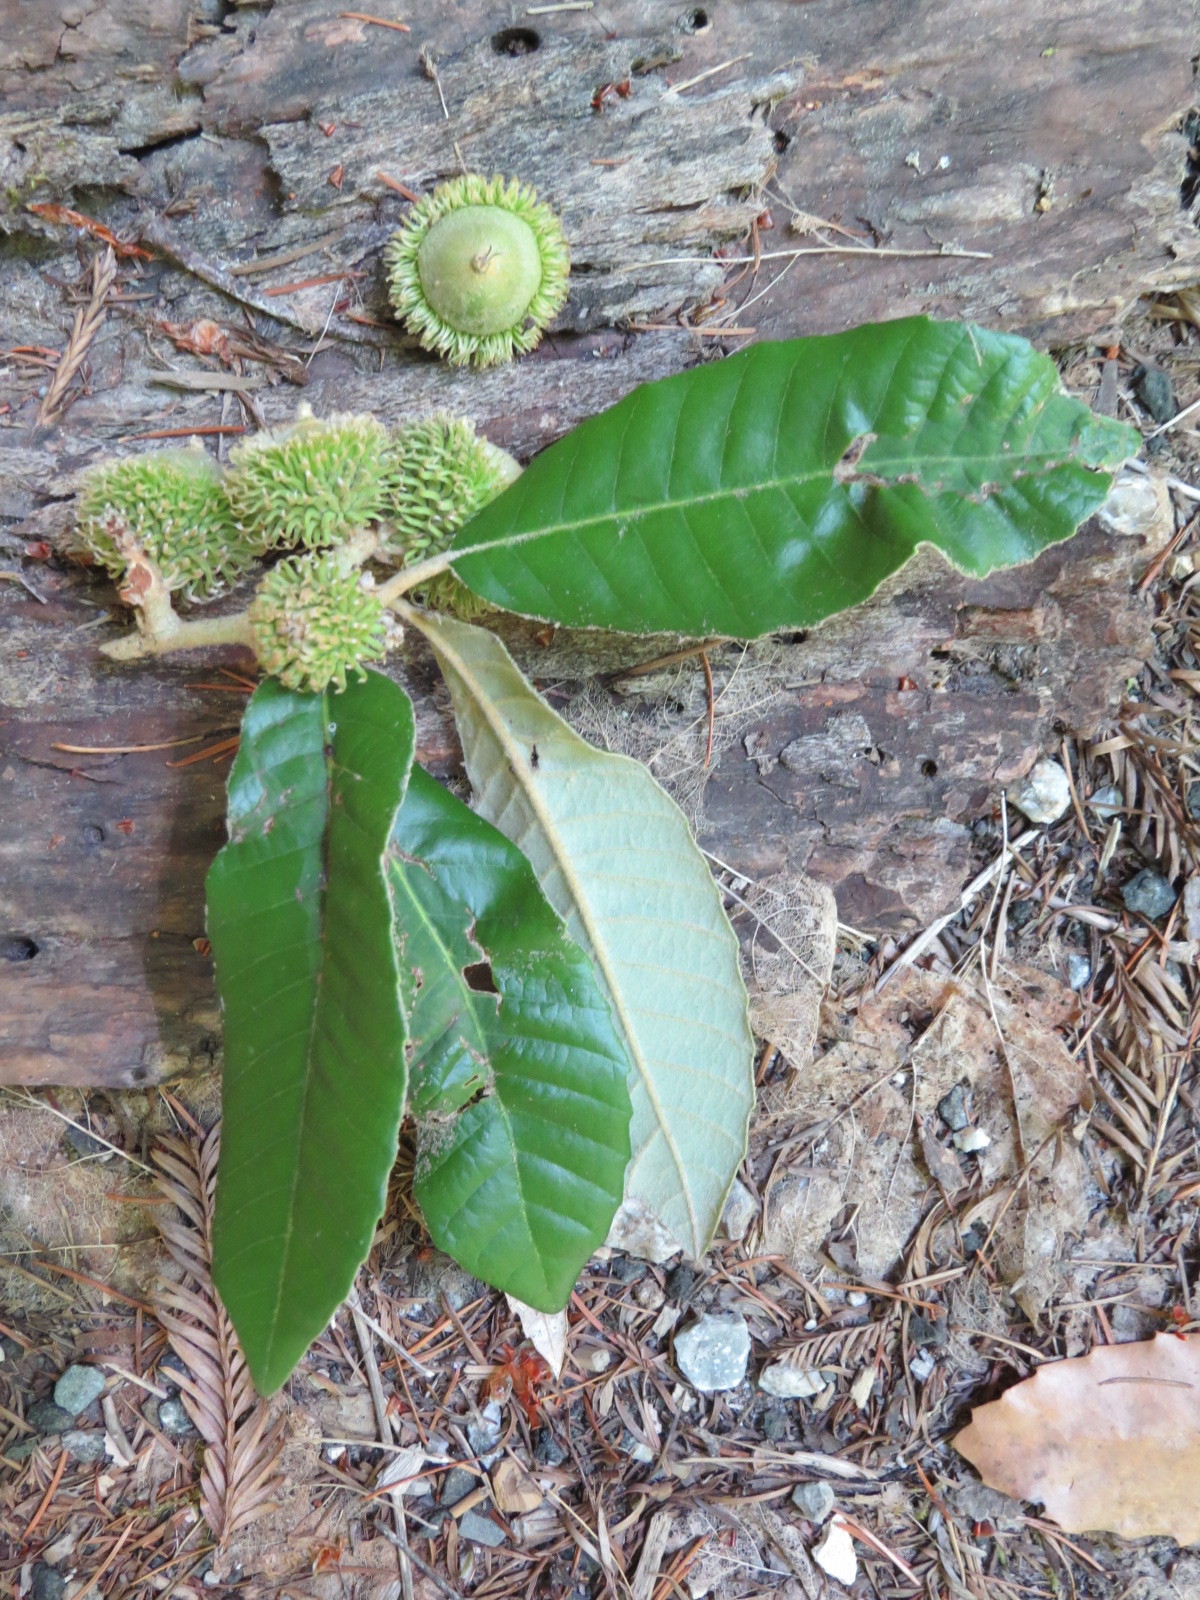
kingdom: Plantae
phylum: Tracheophyta
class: Magnoliopsida
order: Fagales
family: Fagaceae
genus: Notholithocarpus
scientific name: Notholithocarpus densiflorus
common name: Tan bark oak
